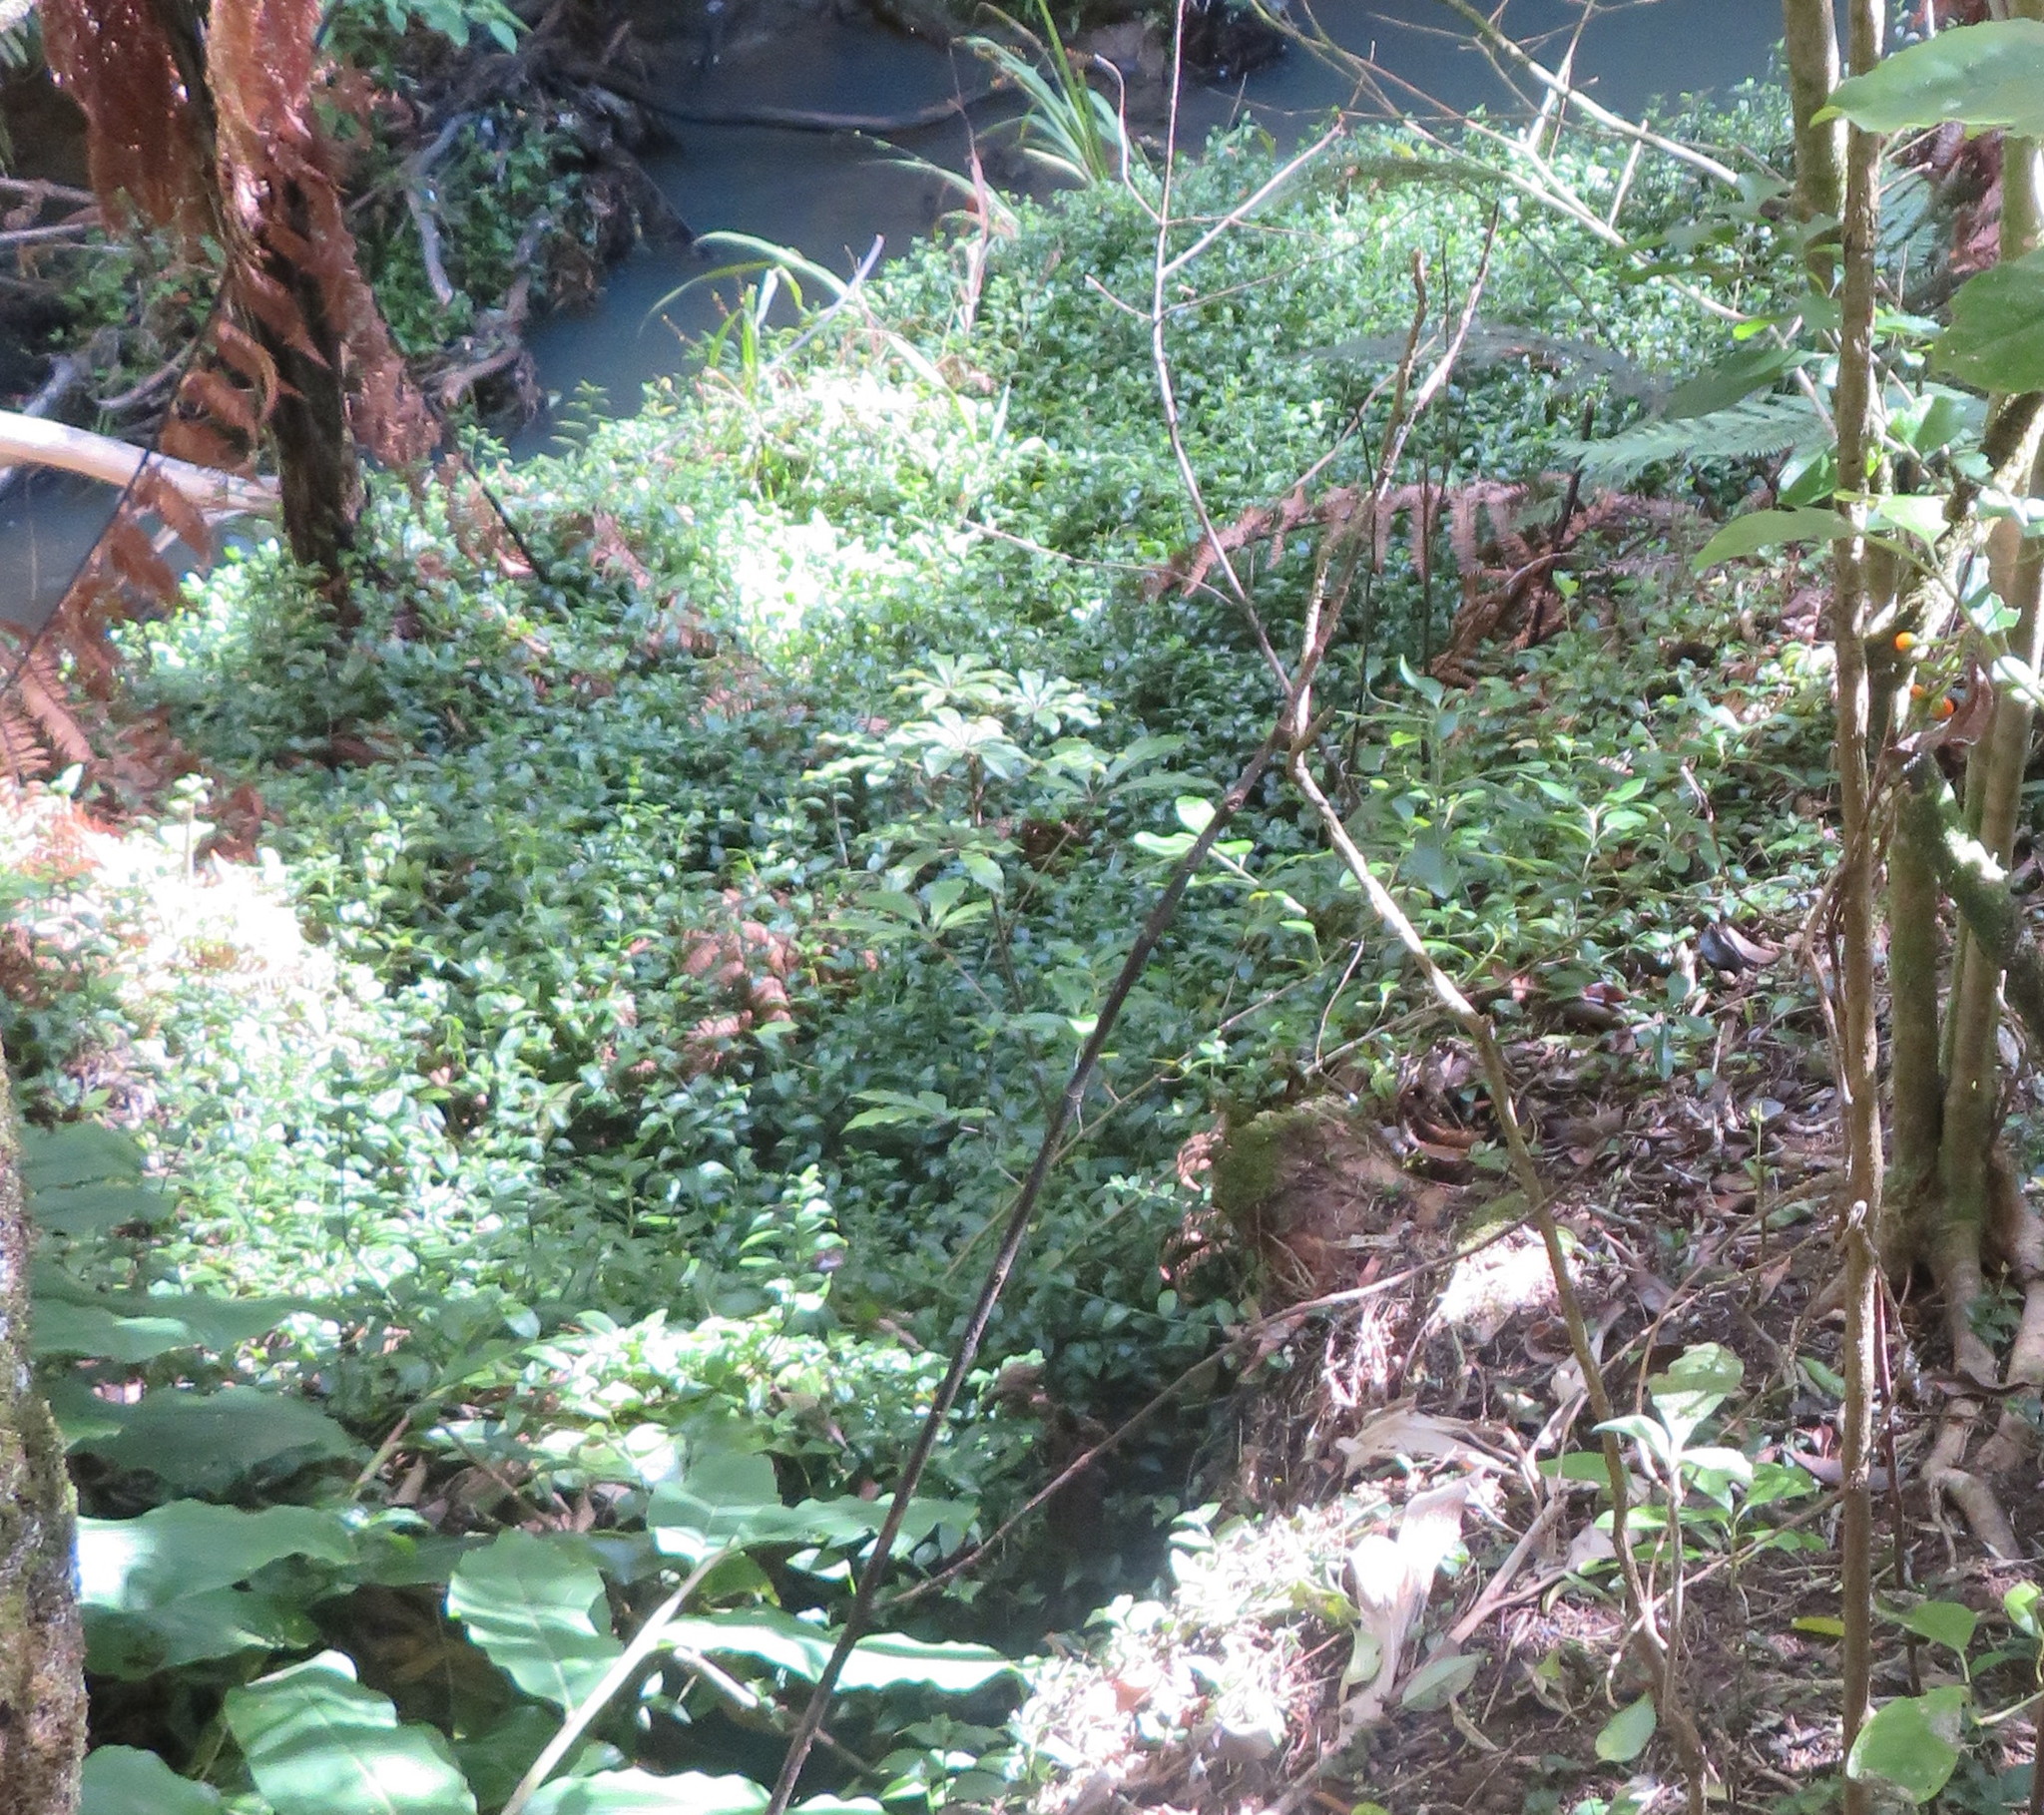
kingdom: Plantae
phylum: Tracheophyta
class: Magnoliopsida
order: Apiales
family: Araliaceae
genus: Schefflera
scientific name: Schefflera digitata
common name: Pate
